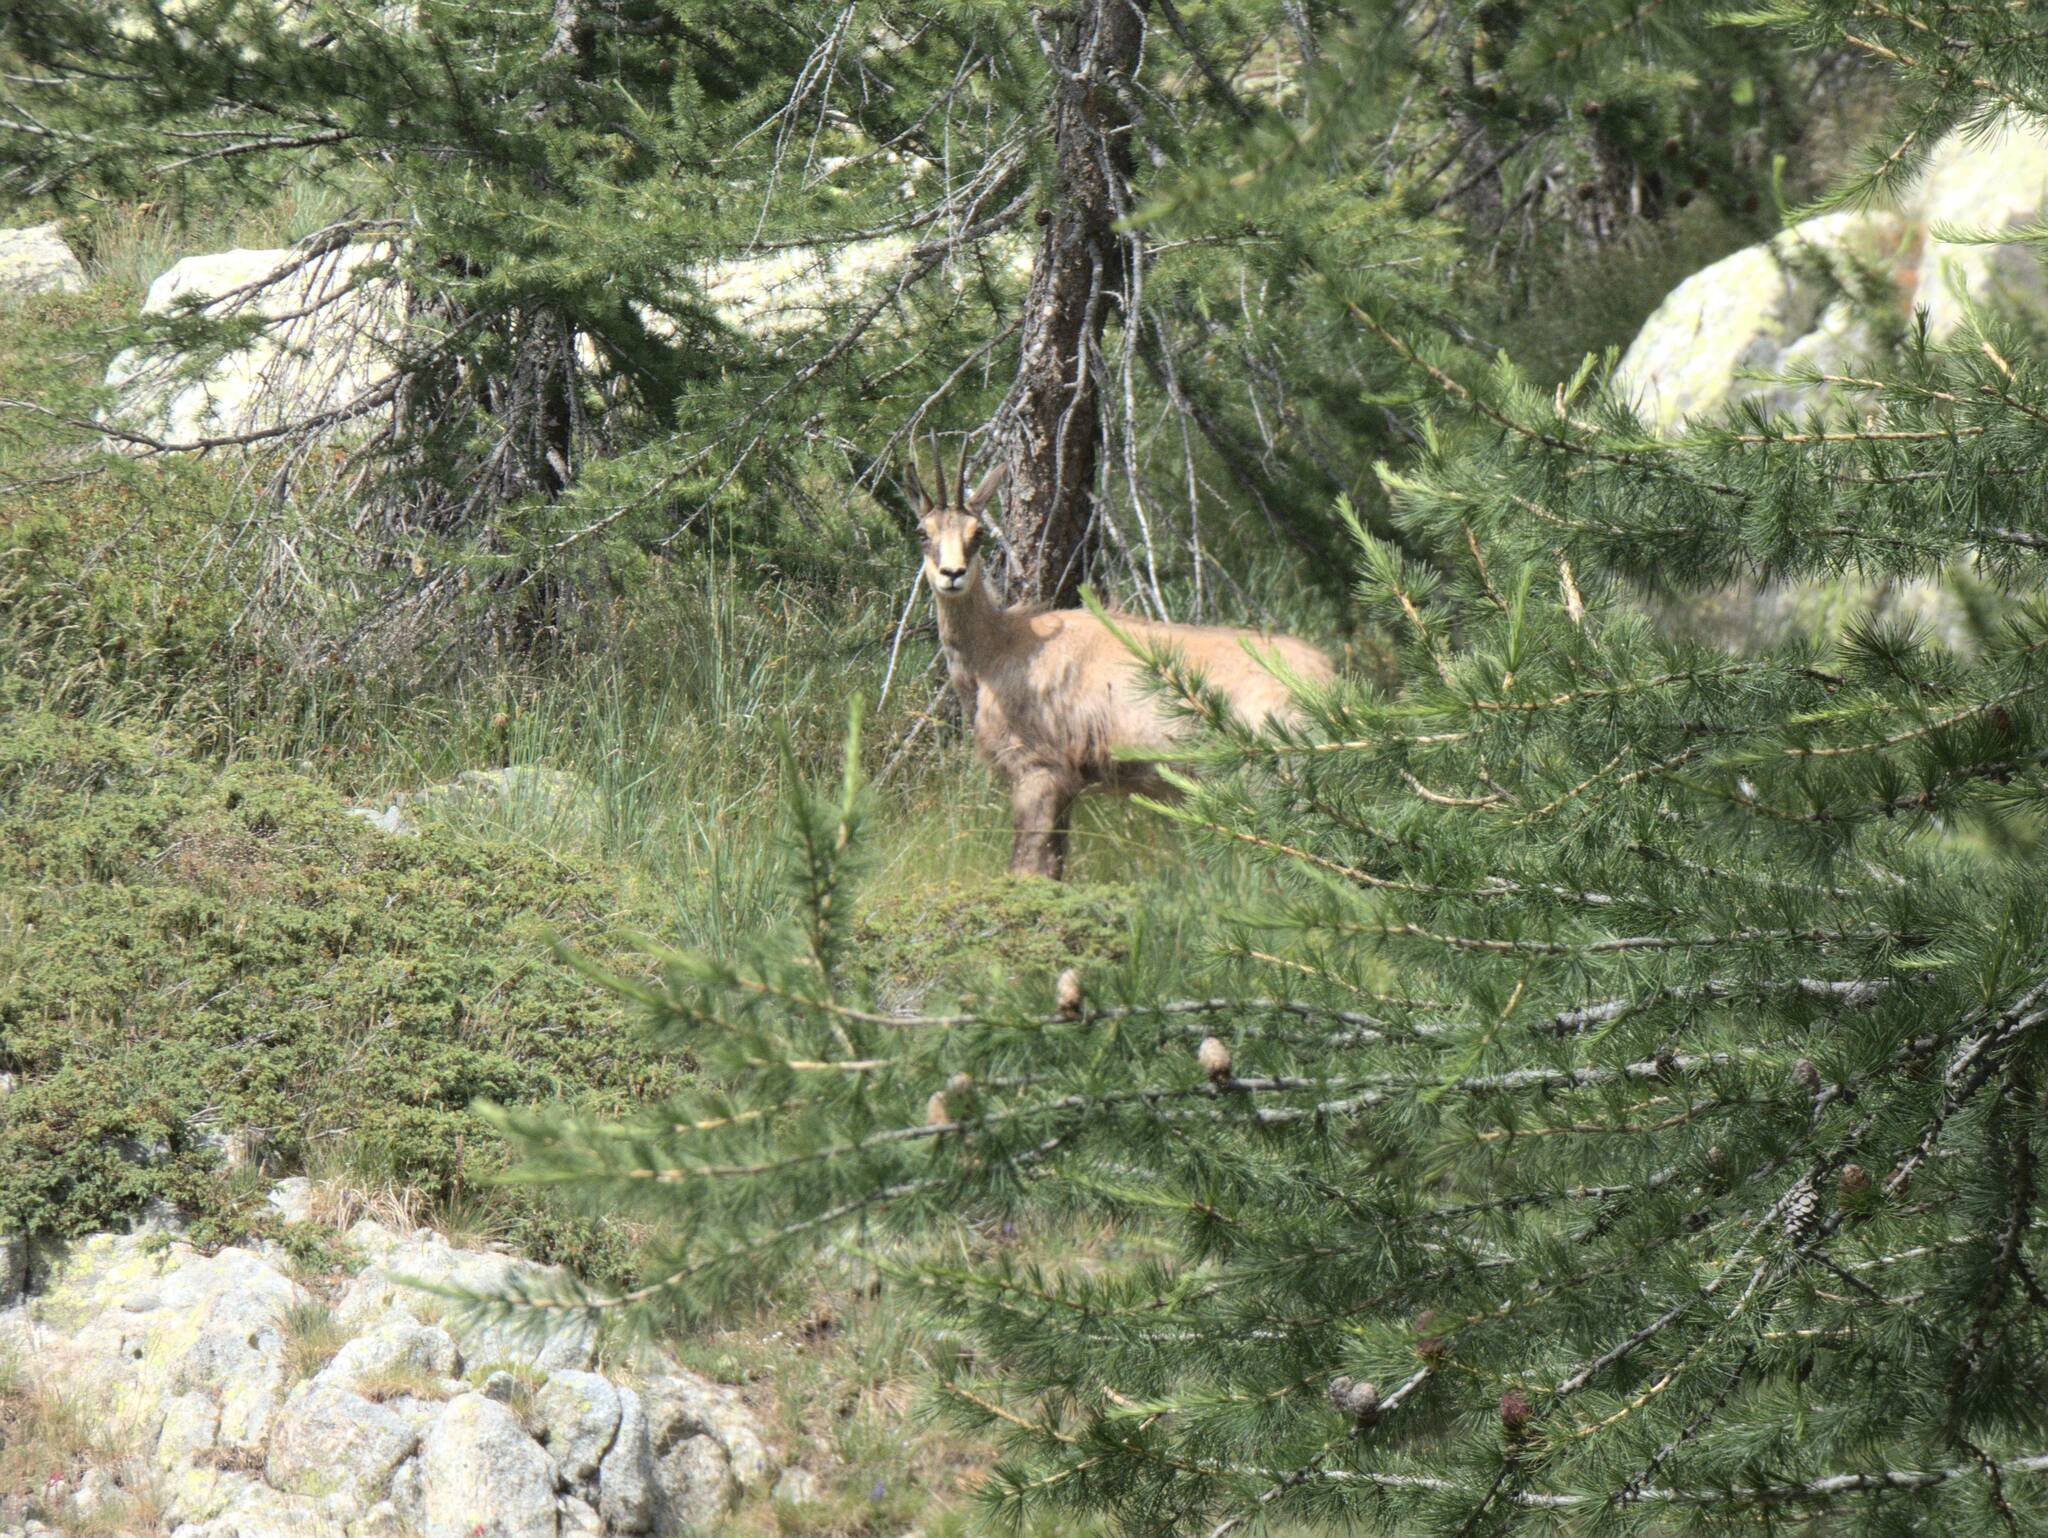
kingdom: Animalia
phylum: Chordata
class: Mammalia
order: Artiodactyla
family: Bovidae
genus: Rupicapra
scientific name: Rupicapra rupicapra
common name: Chamois
